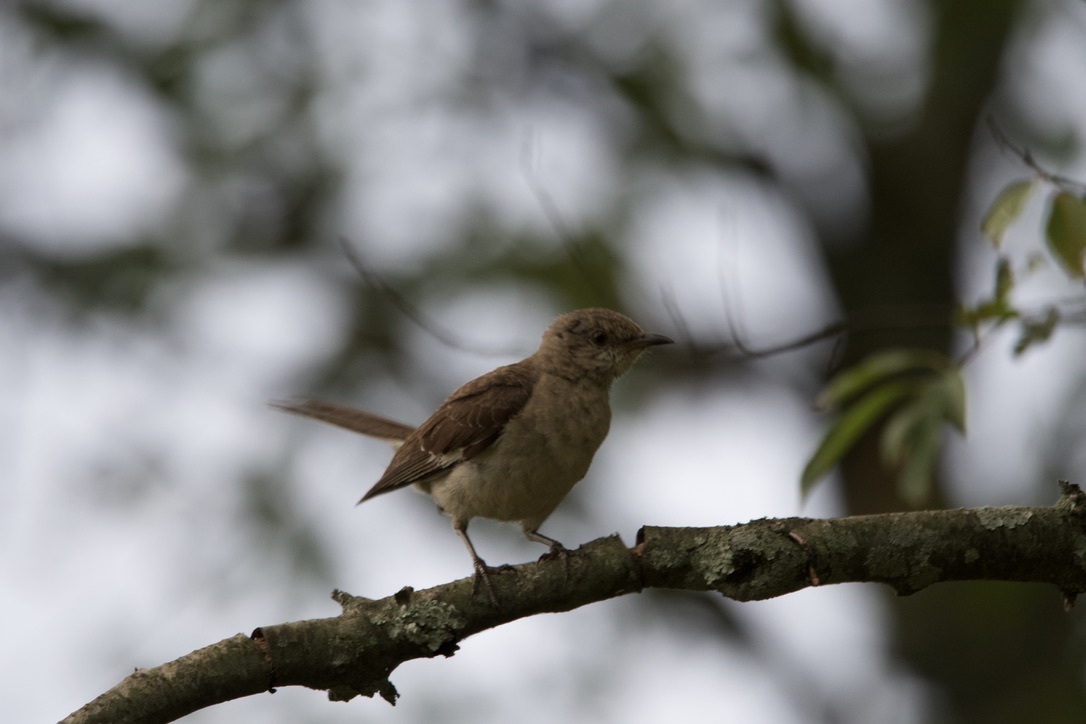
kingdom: Animalia
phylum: Chordata
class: Aves
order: Passeriformes
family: Mimidae
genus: Mimus
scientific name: Mimus polyglottos
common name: Northern mockingbird
